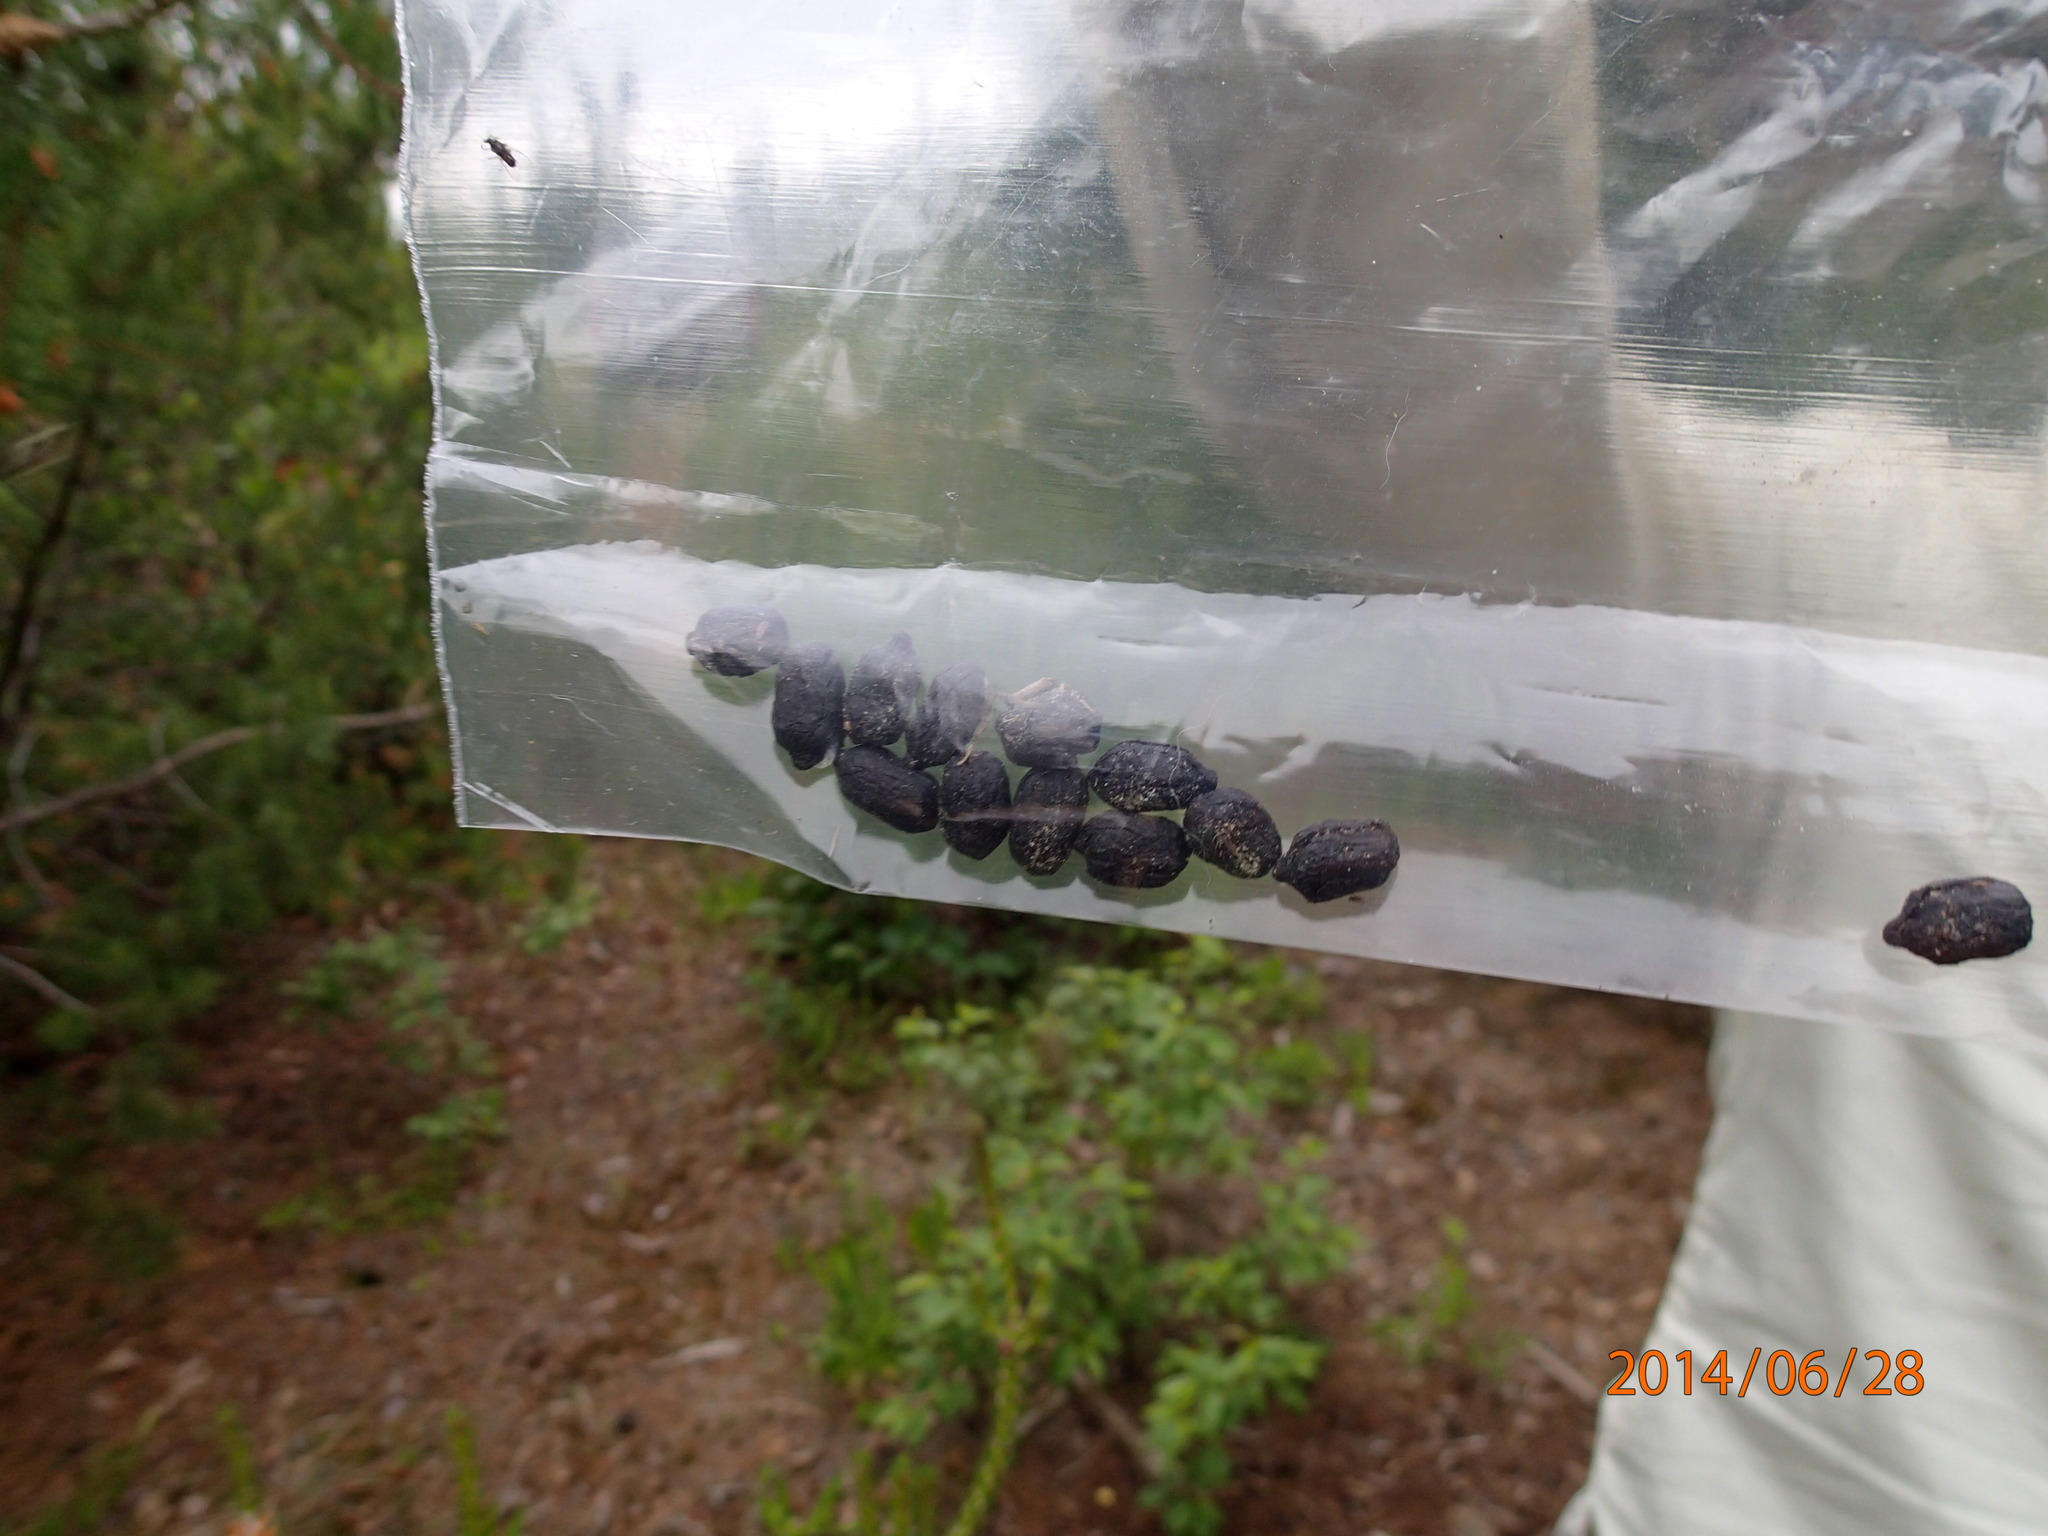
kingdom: Animalia
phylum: Chordata
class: Mammalia
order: Artiodactyla
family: Cervidae
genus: Rangifer
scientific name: Rangifer tarandus
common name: Reindeer
